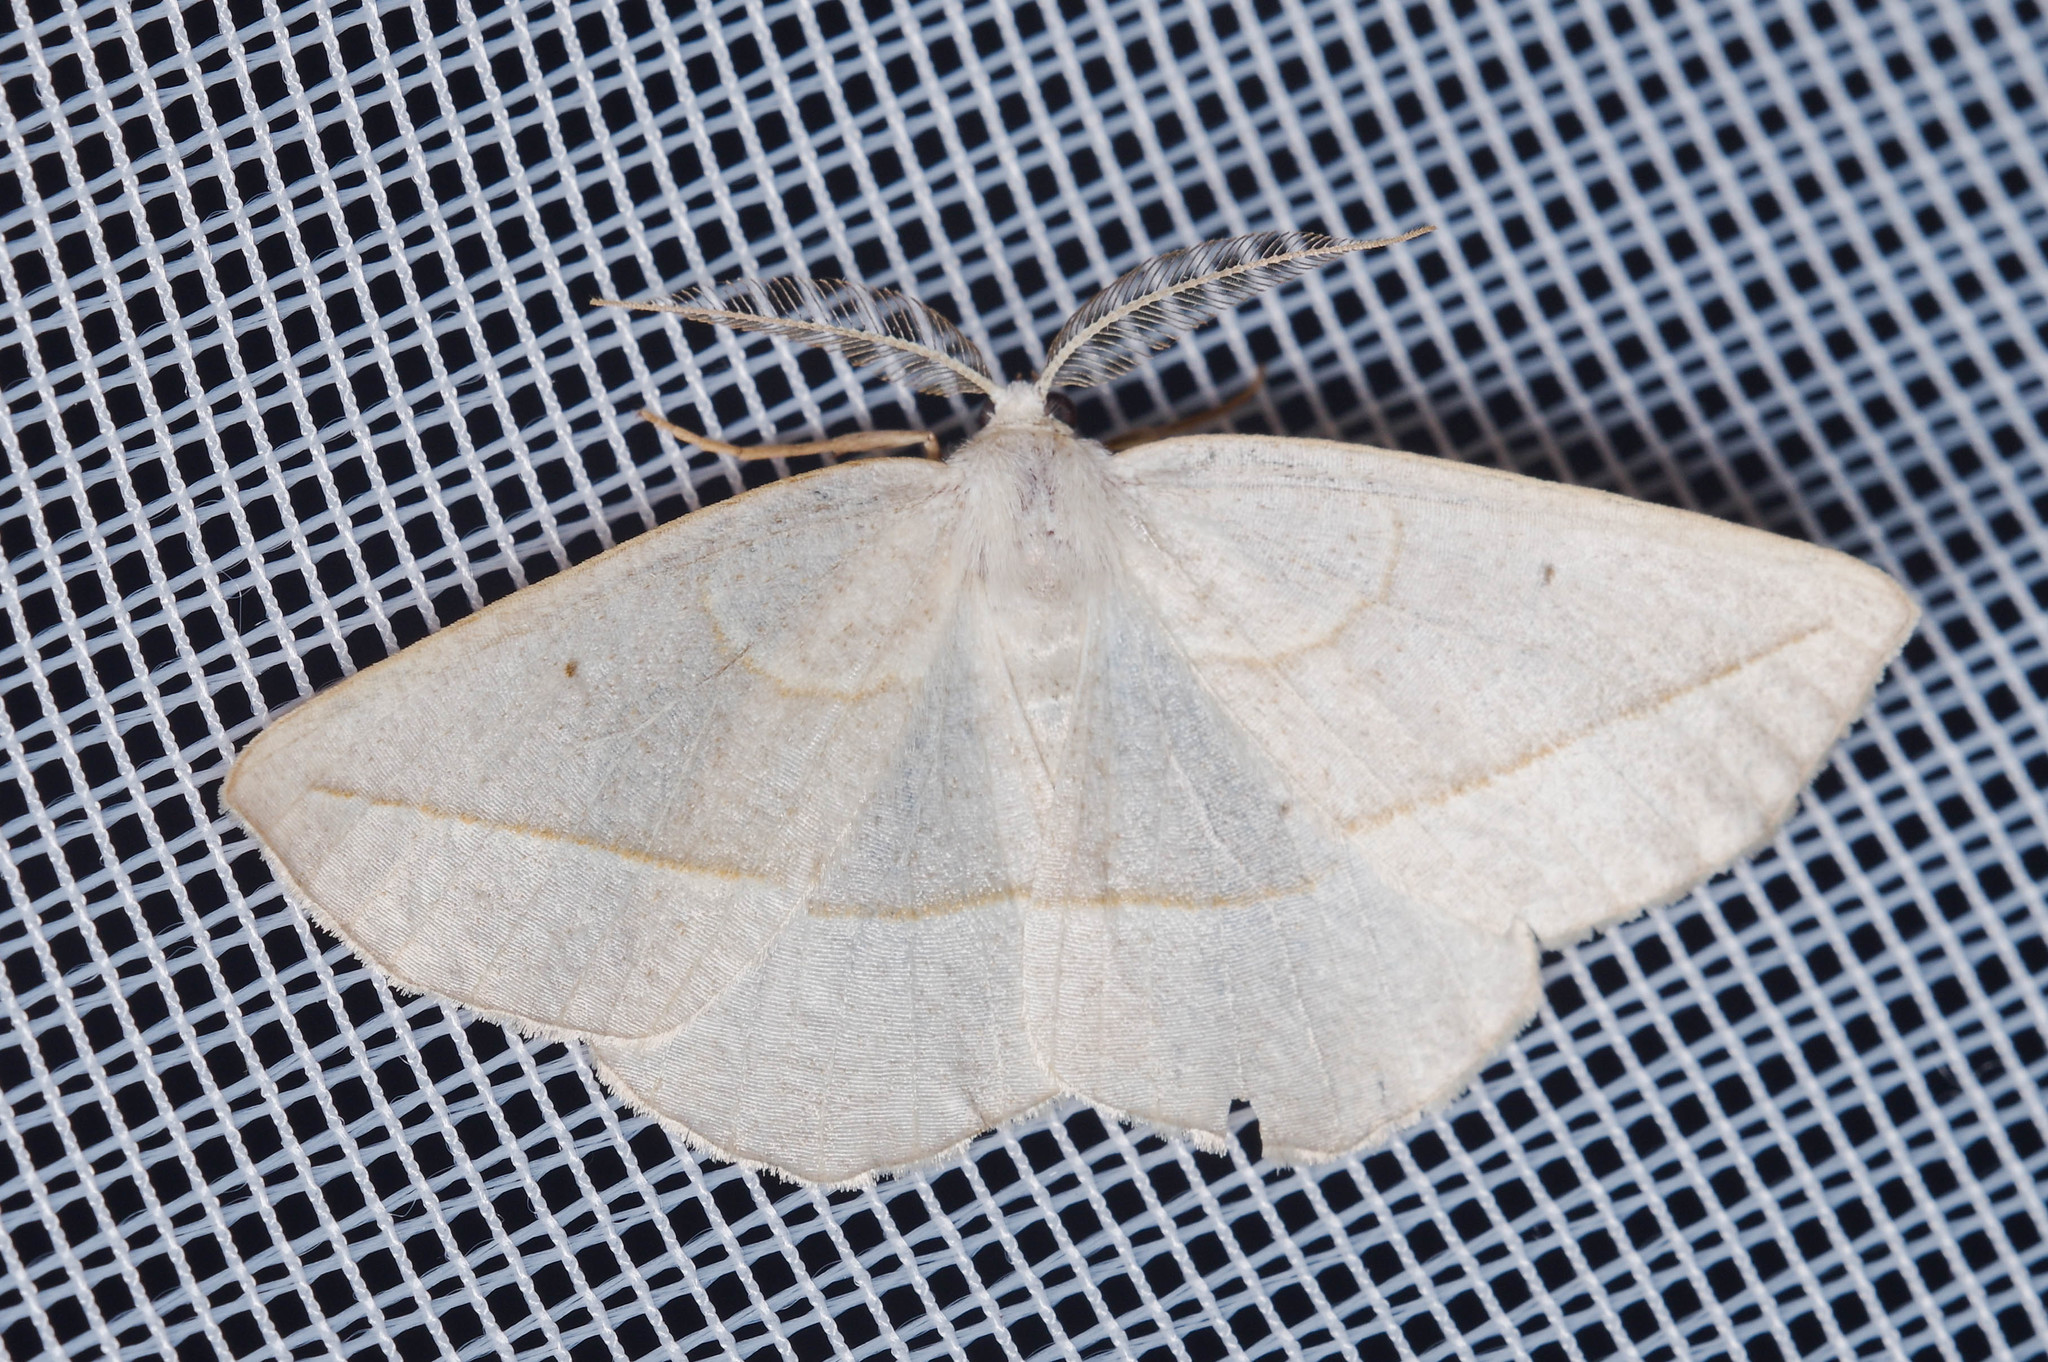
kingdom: Animalia
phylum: Arthropoda
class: Insecta
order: Lepidoptera
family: Geometridae
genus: Eusarca
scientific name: Eusarca confusaria
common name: Confused eusarca
